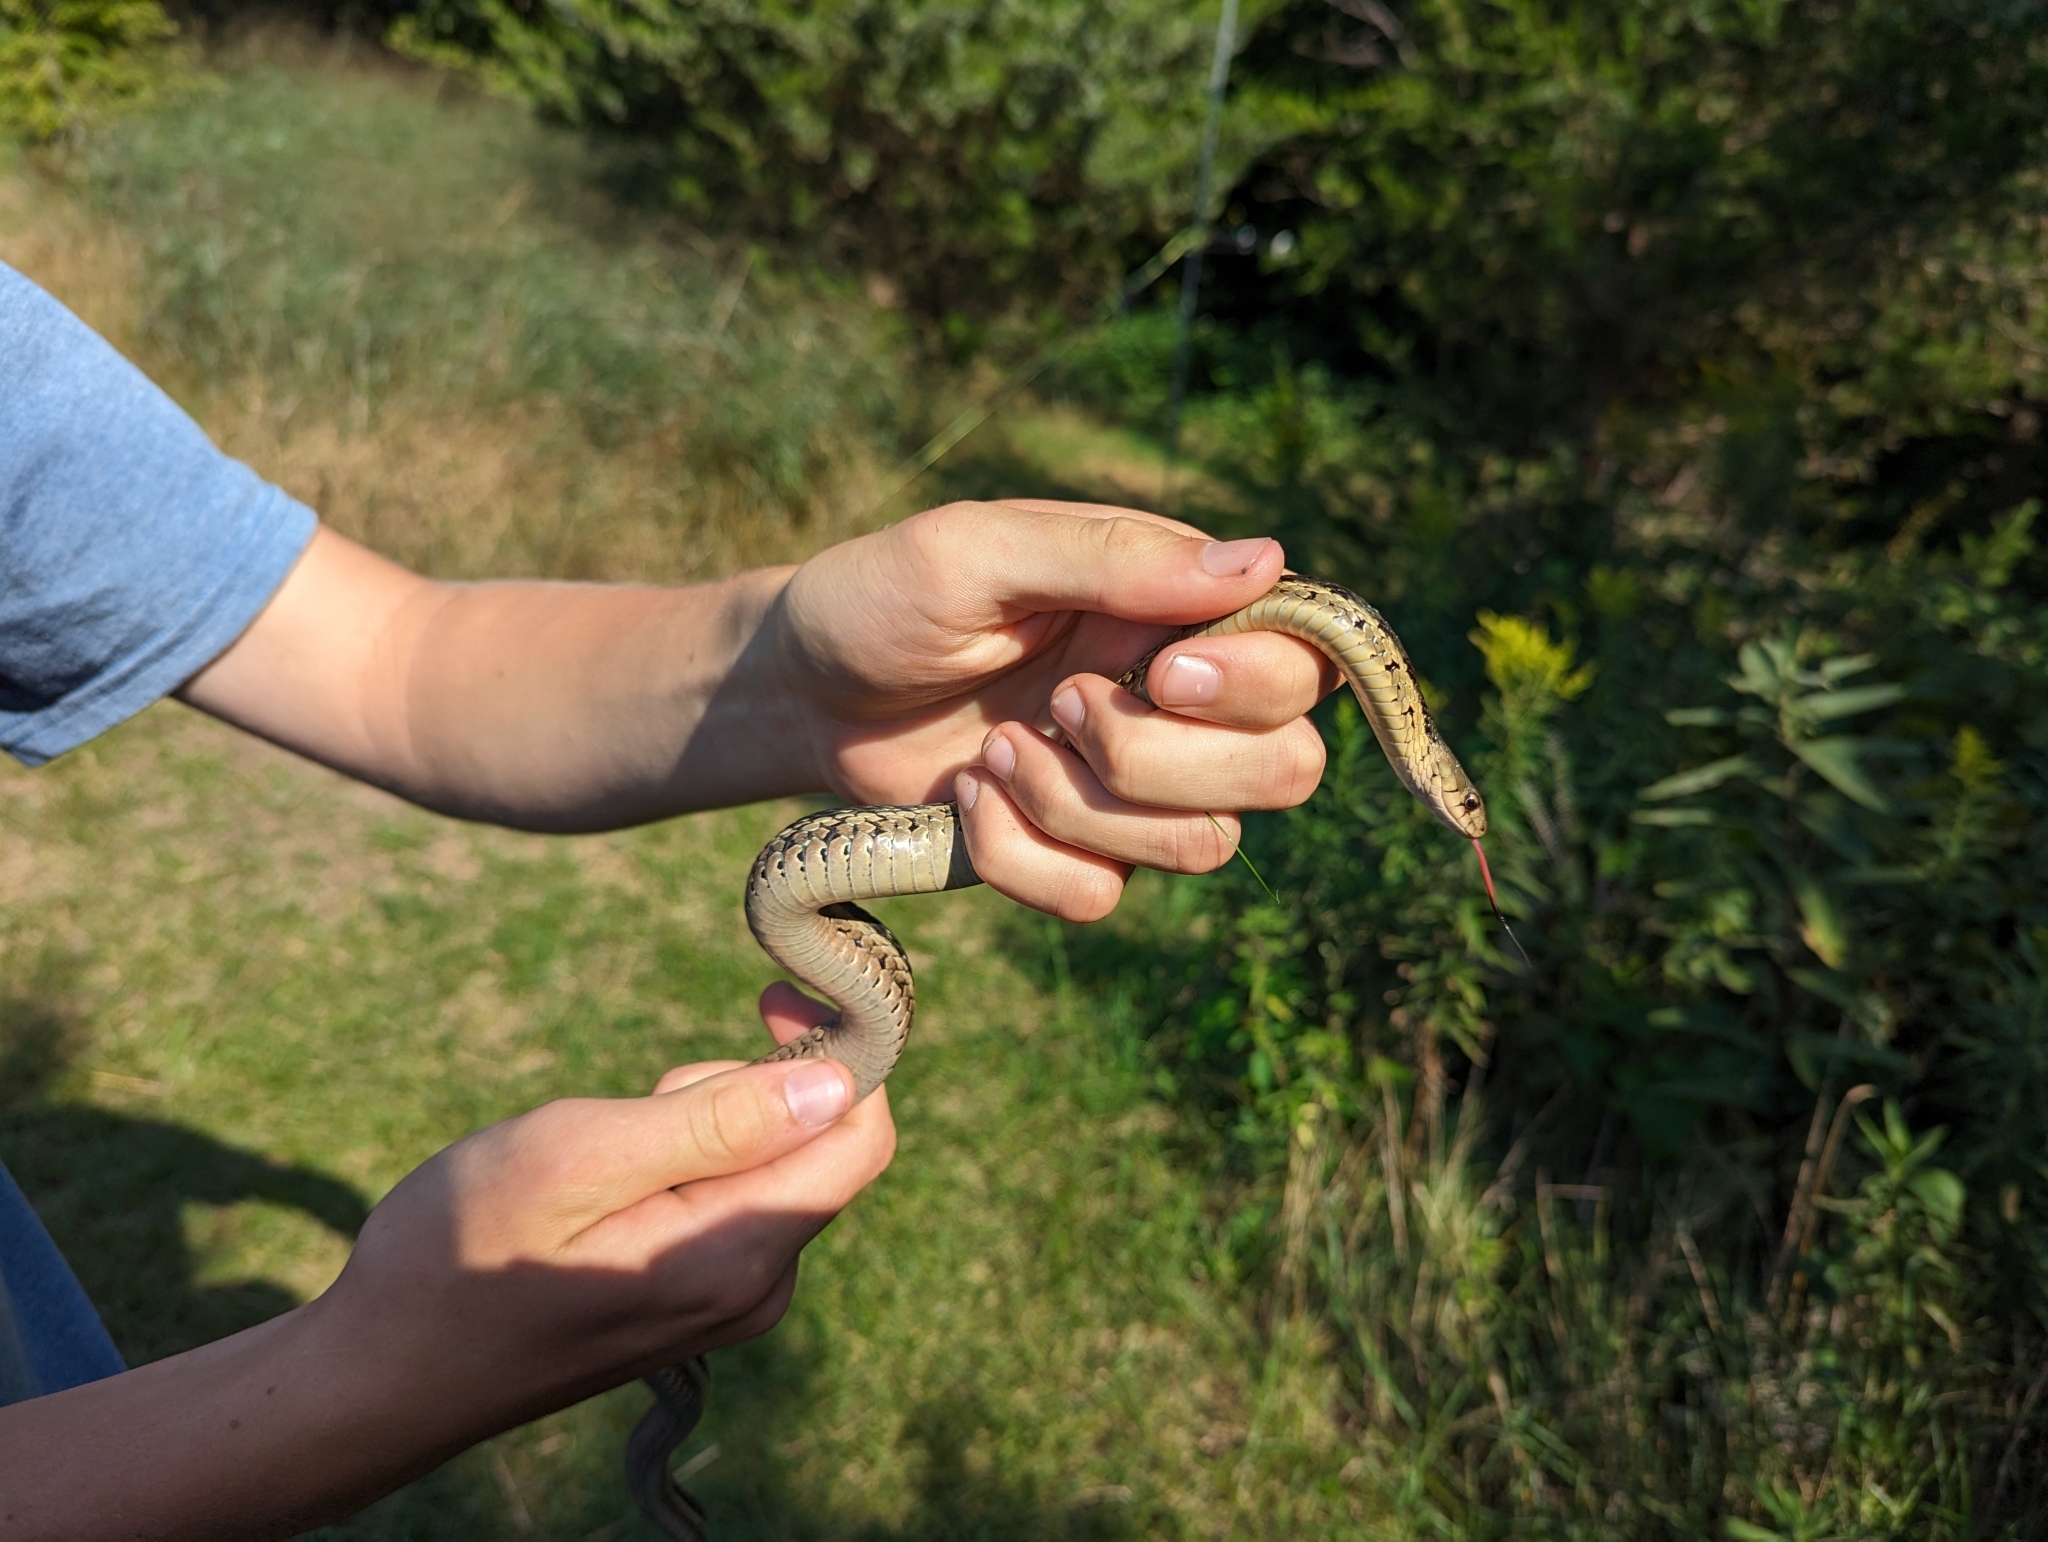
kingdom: Animalia
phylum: Chordata
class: Squamata
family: Colubridae
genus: Thamnophis
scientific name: Thamnophis sirtalis
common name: Common garter snake
